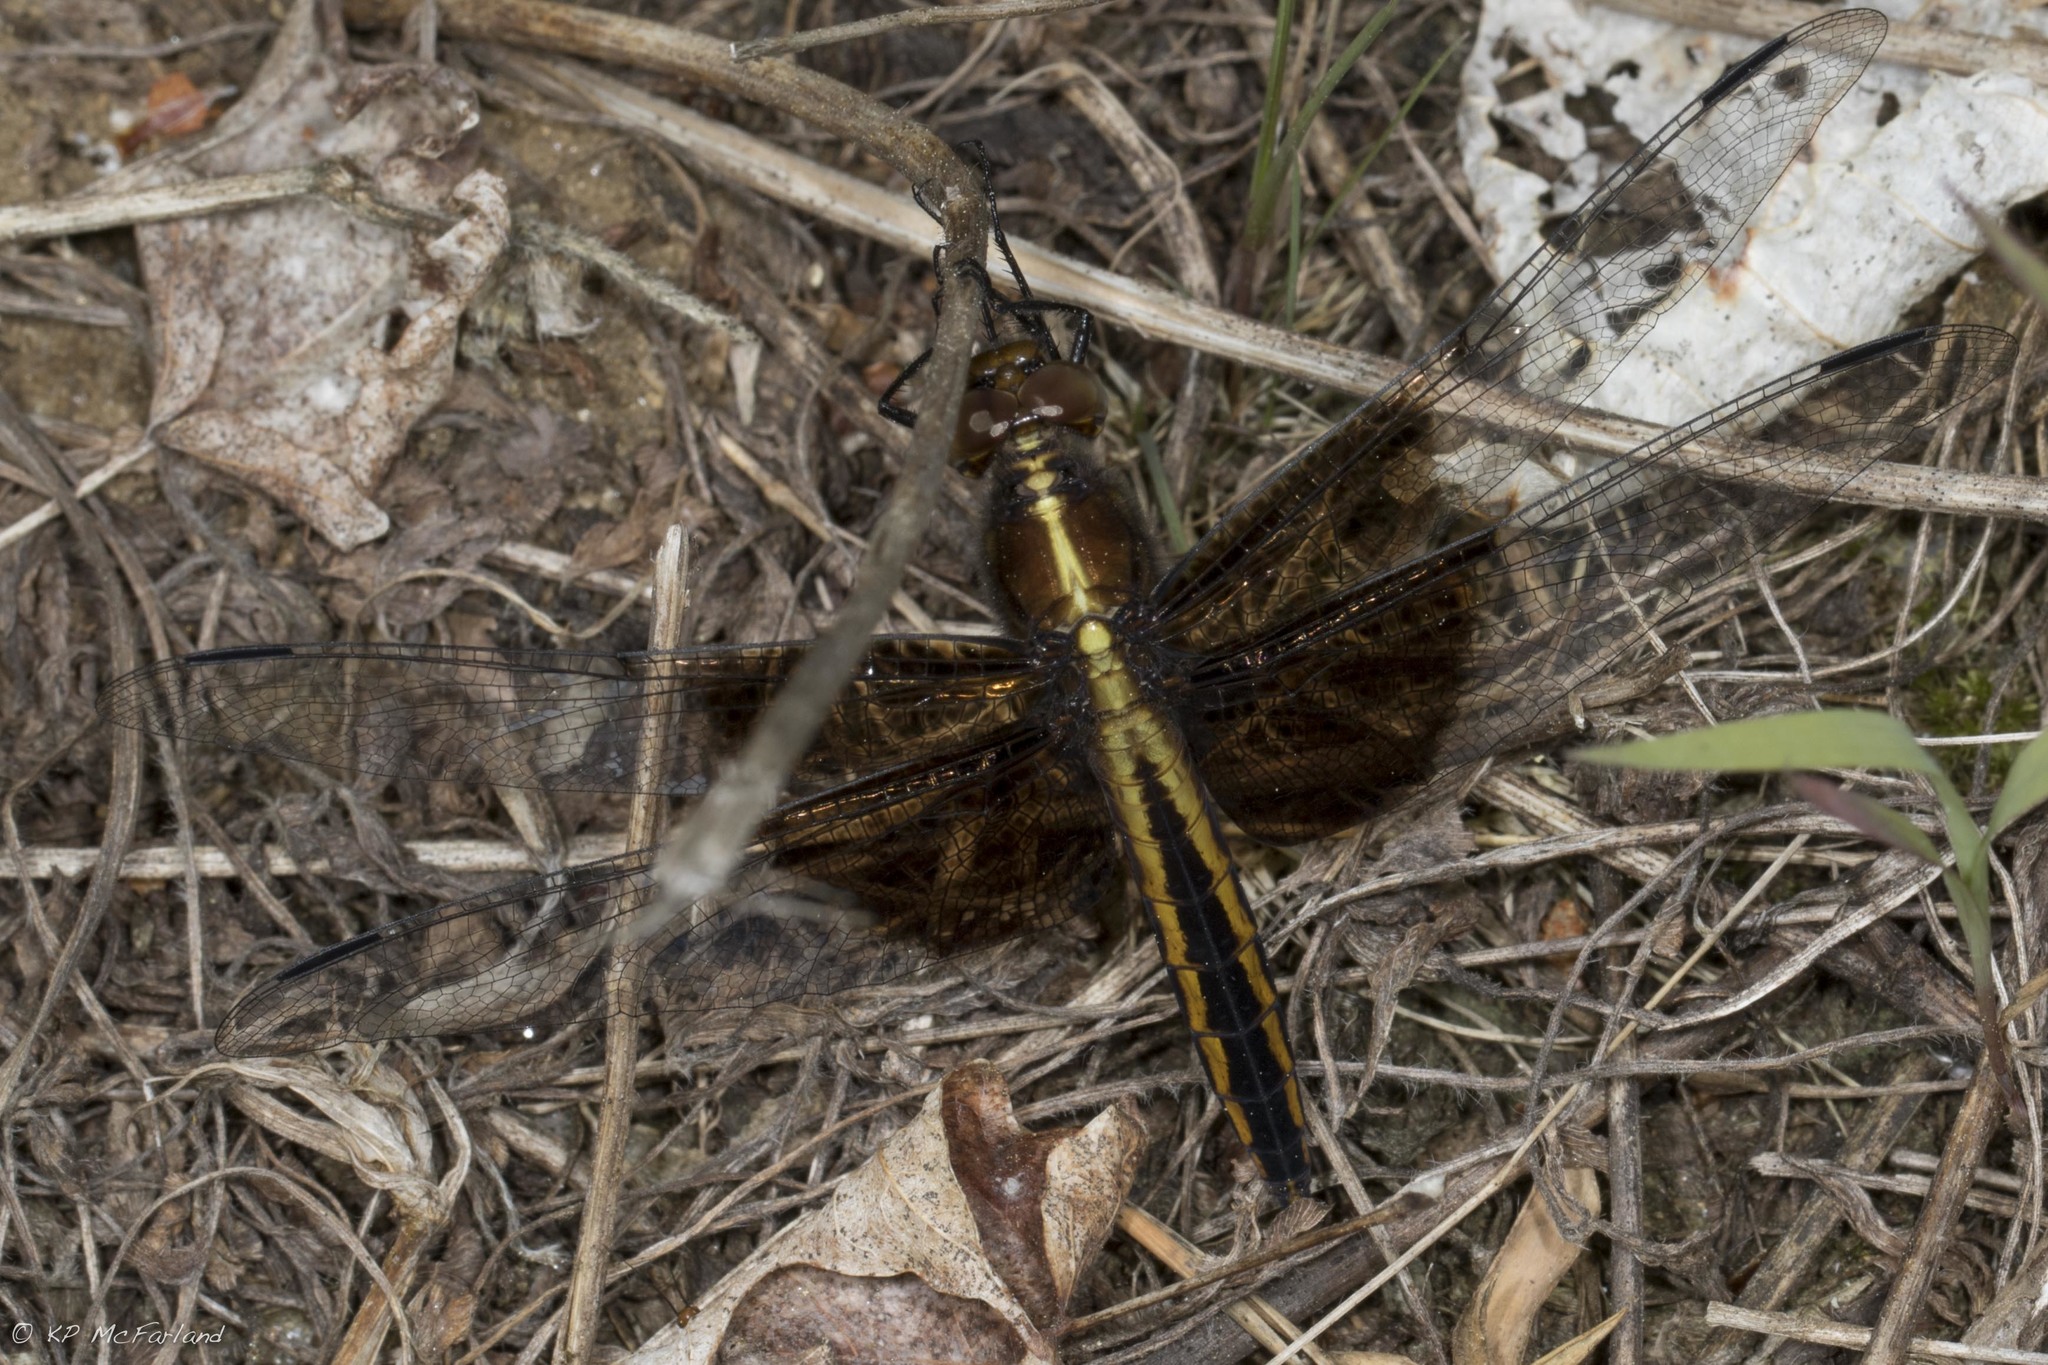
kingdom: Animalia
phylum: Arthropoda
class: Insecta
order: Odonata
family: Libellulidae
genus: Libellula
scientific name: Libellula luctuosa
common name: Widow skimmer
